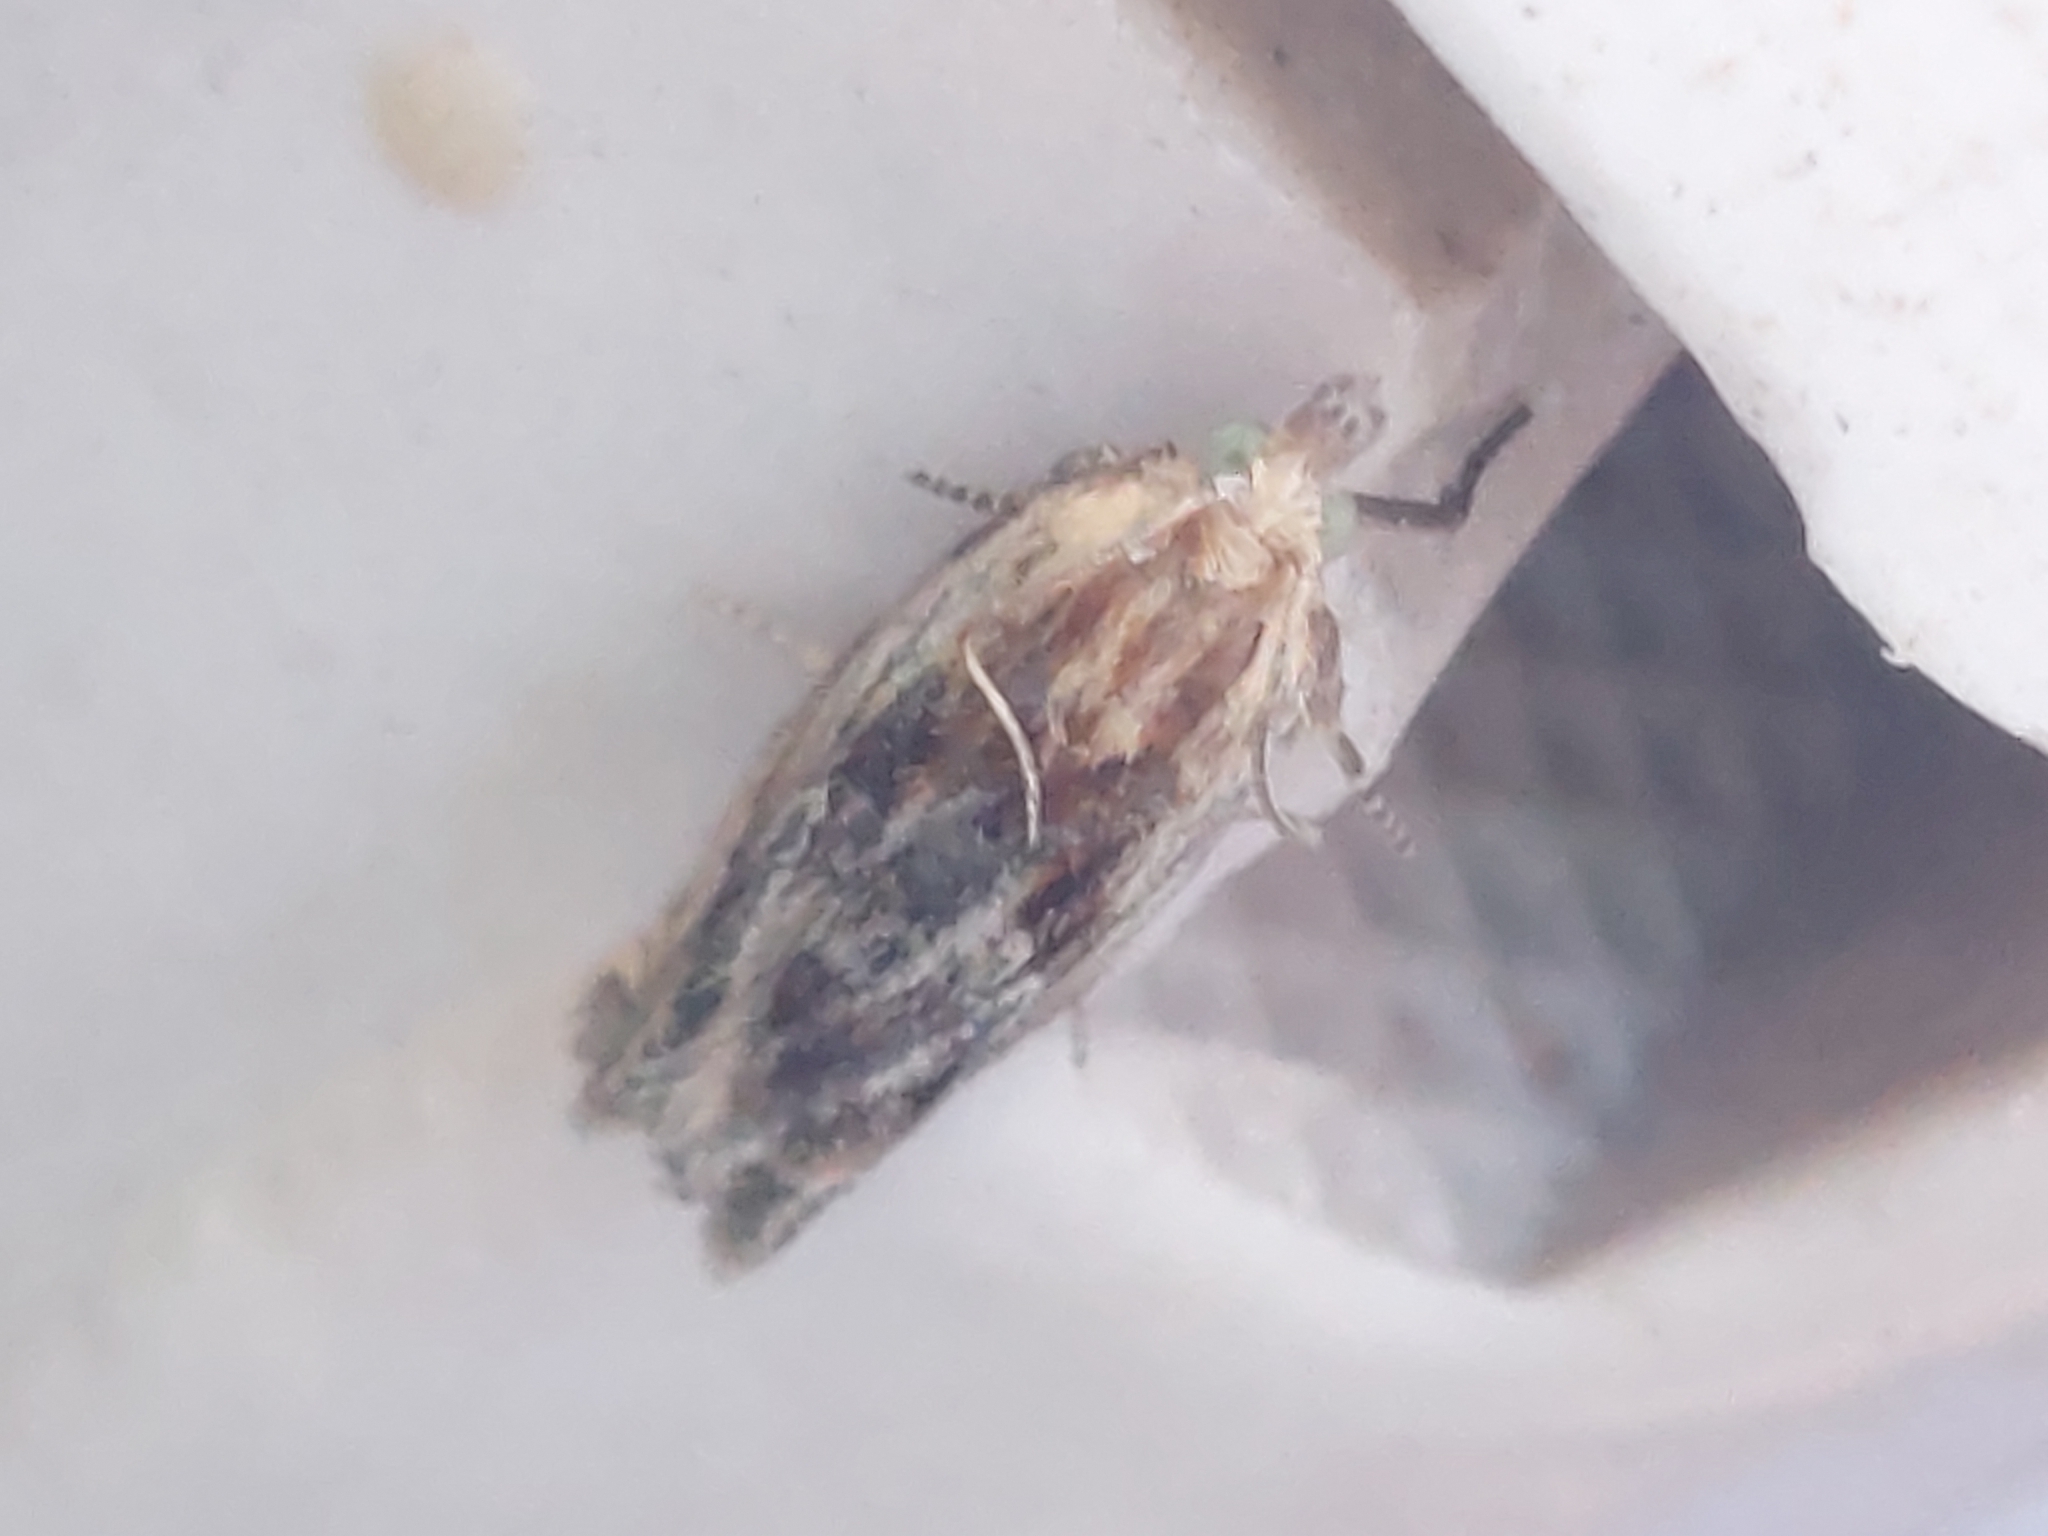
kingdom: Animalia
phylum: Arthropoda
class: Insecta
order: Lepidoptera
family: Pyralidae
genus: Galleria
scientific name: Galleria mellonella
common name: Greater wax moth
